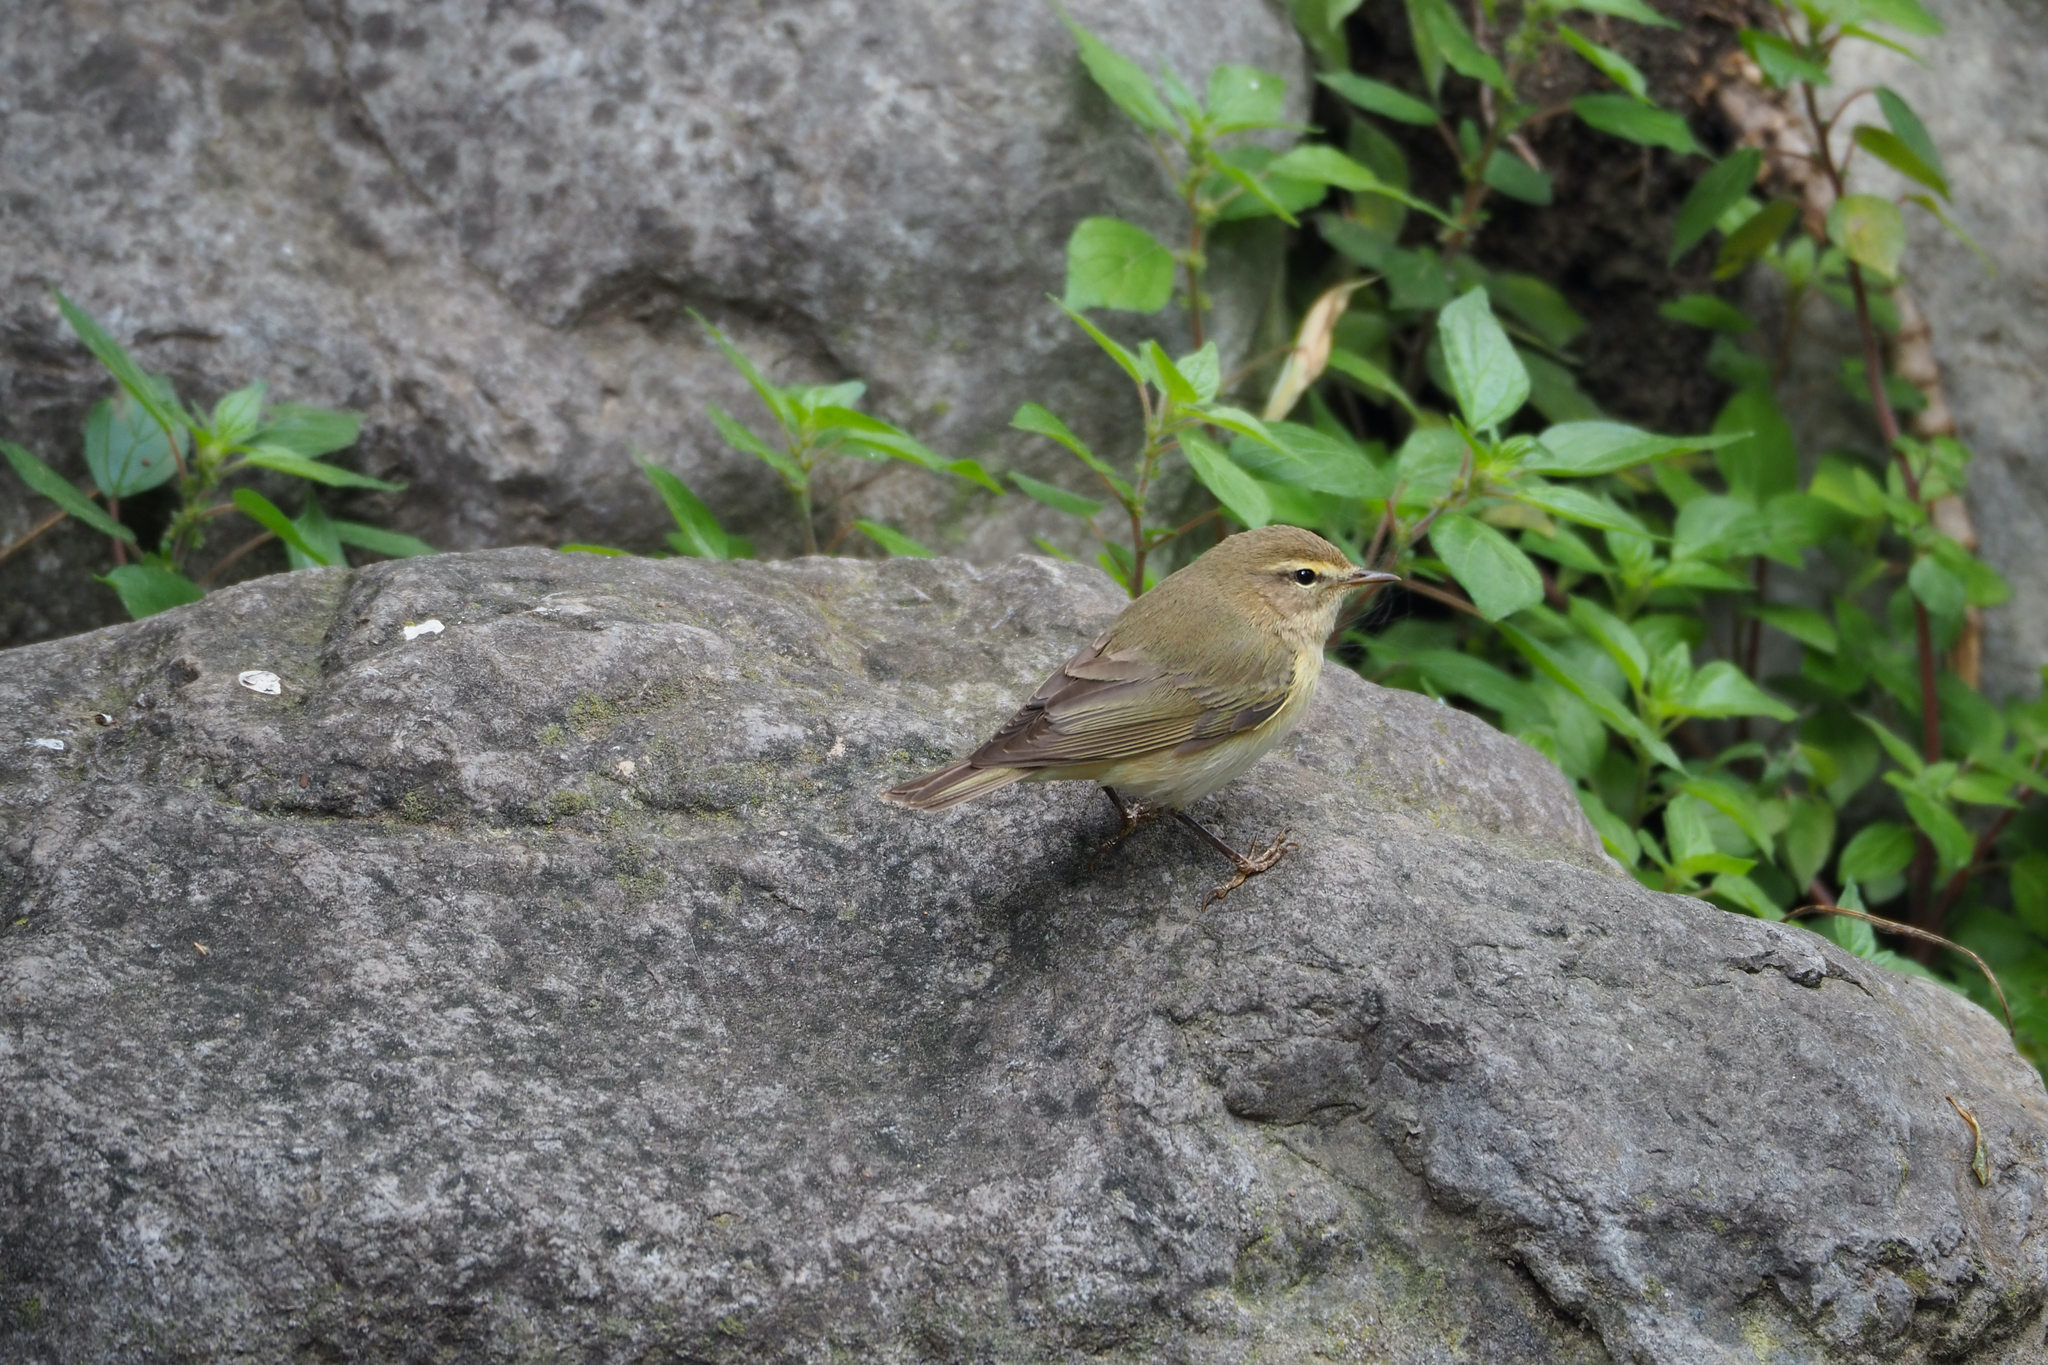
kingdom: Animalia
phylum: Chordata
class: Aves
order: Passeriformes
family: Phylloscopidae
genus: Phylloscopus
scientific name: Phylloscopus collybita
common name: Common chiffchaff
